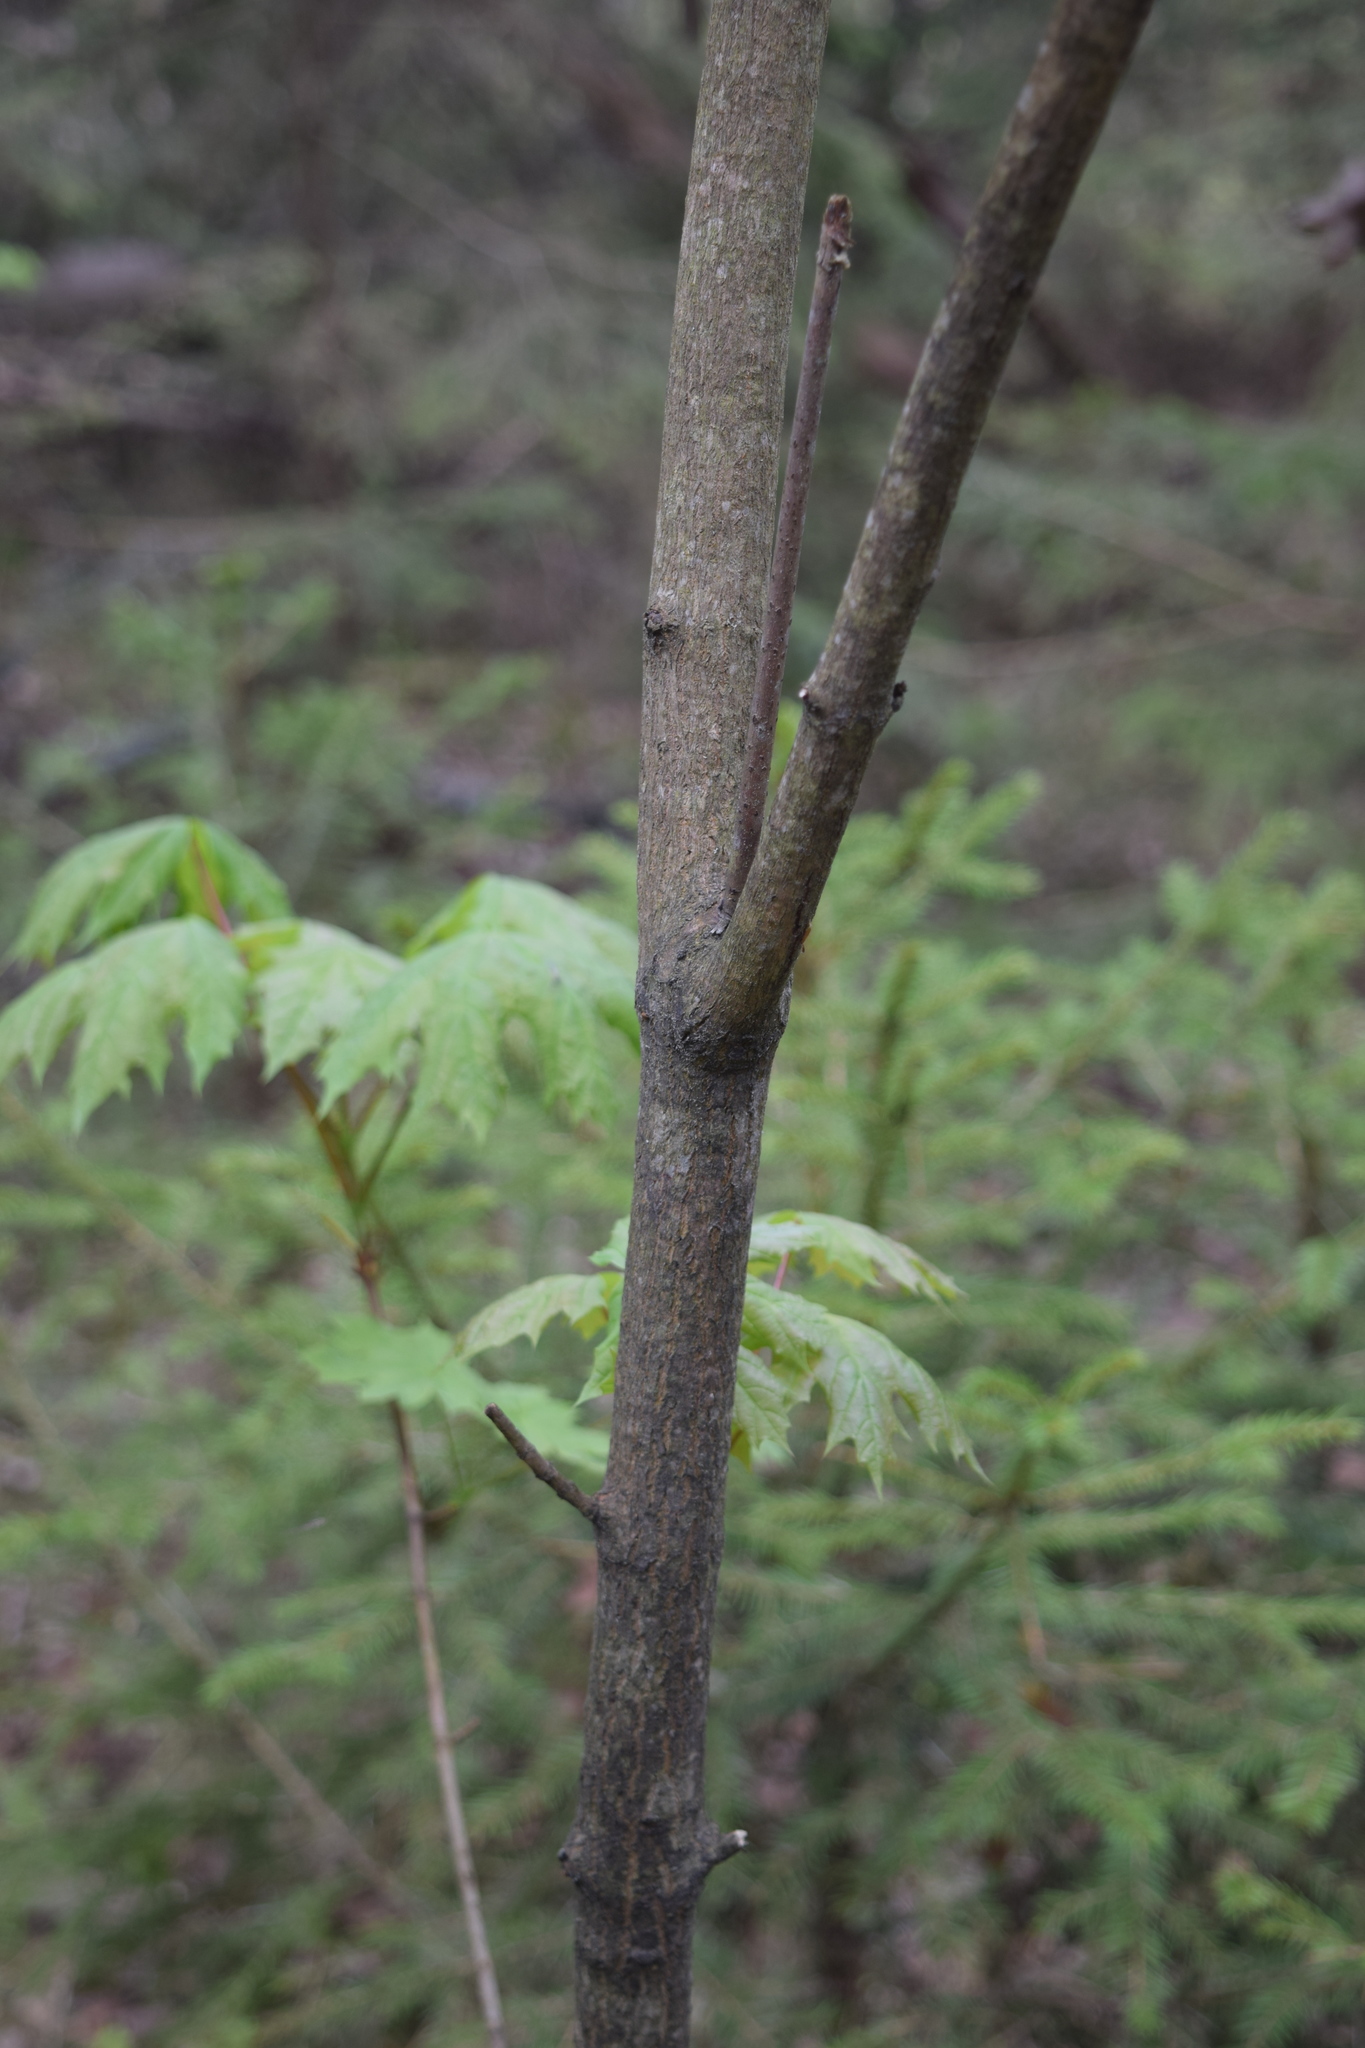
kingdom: Plantae
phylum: Tracheophyta
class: Magnoliopsida
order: Sapindales
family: Sapindaceae
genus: Acer
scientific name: Acer platanoides
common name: Norway maple
